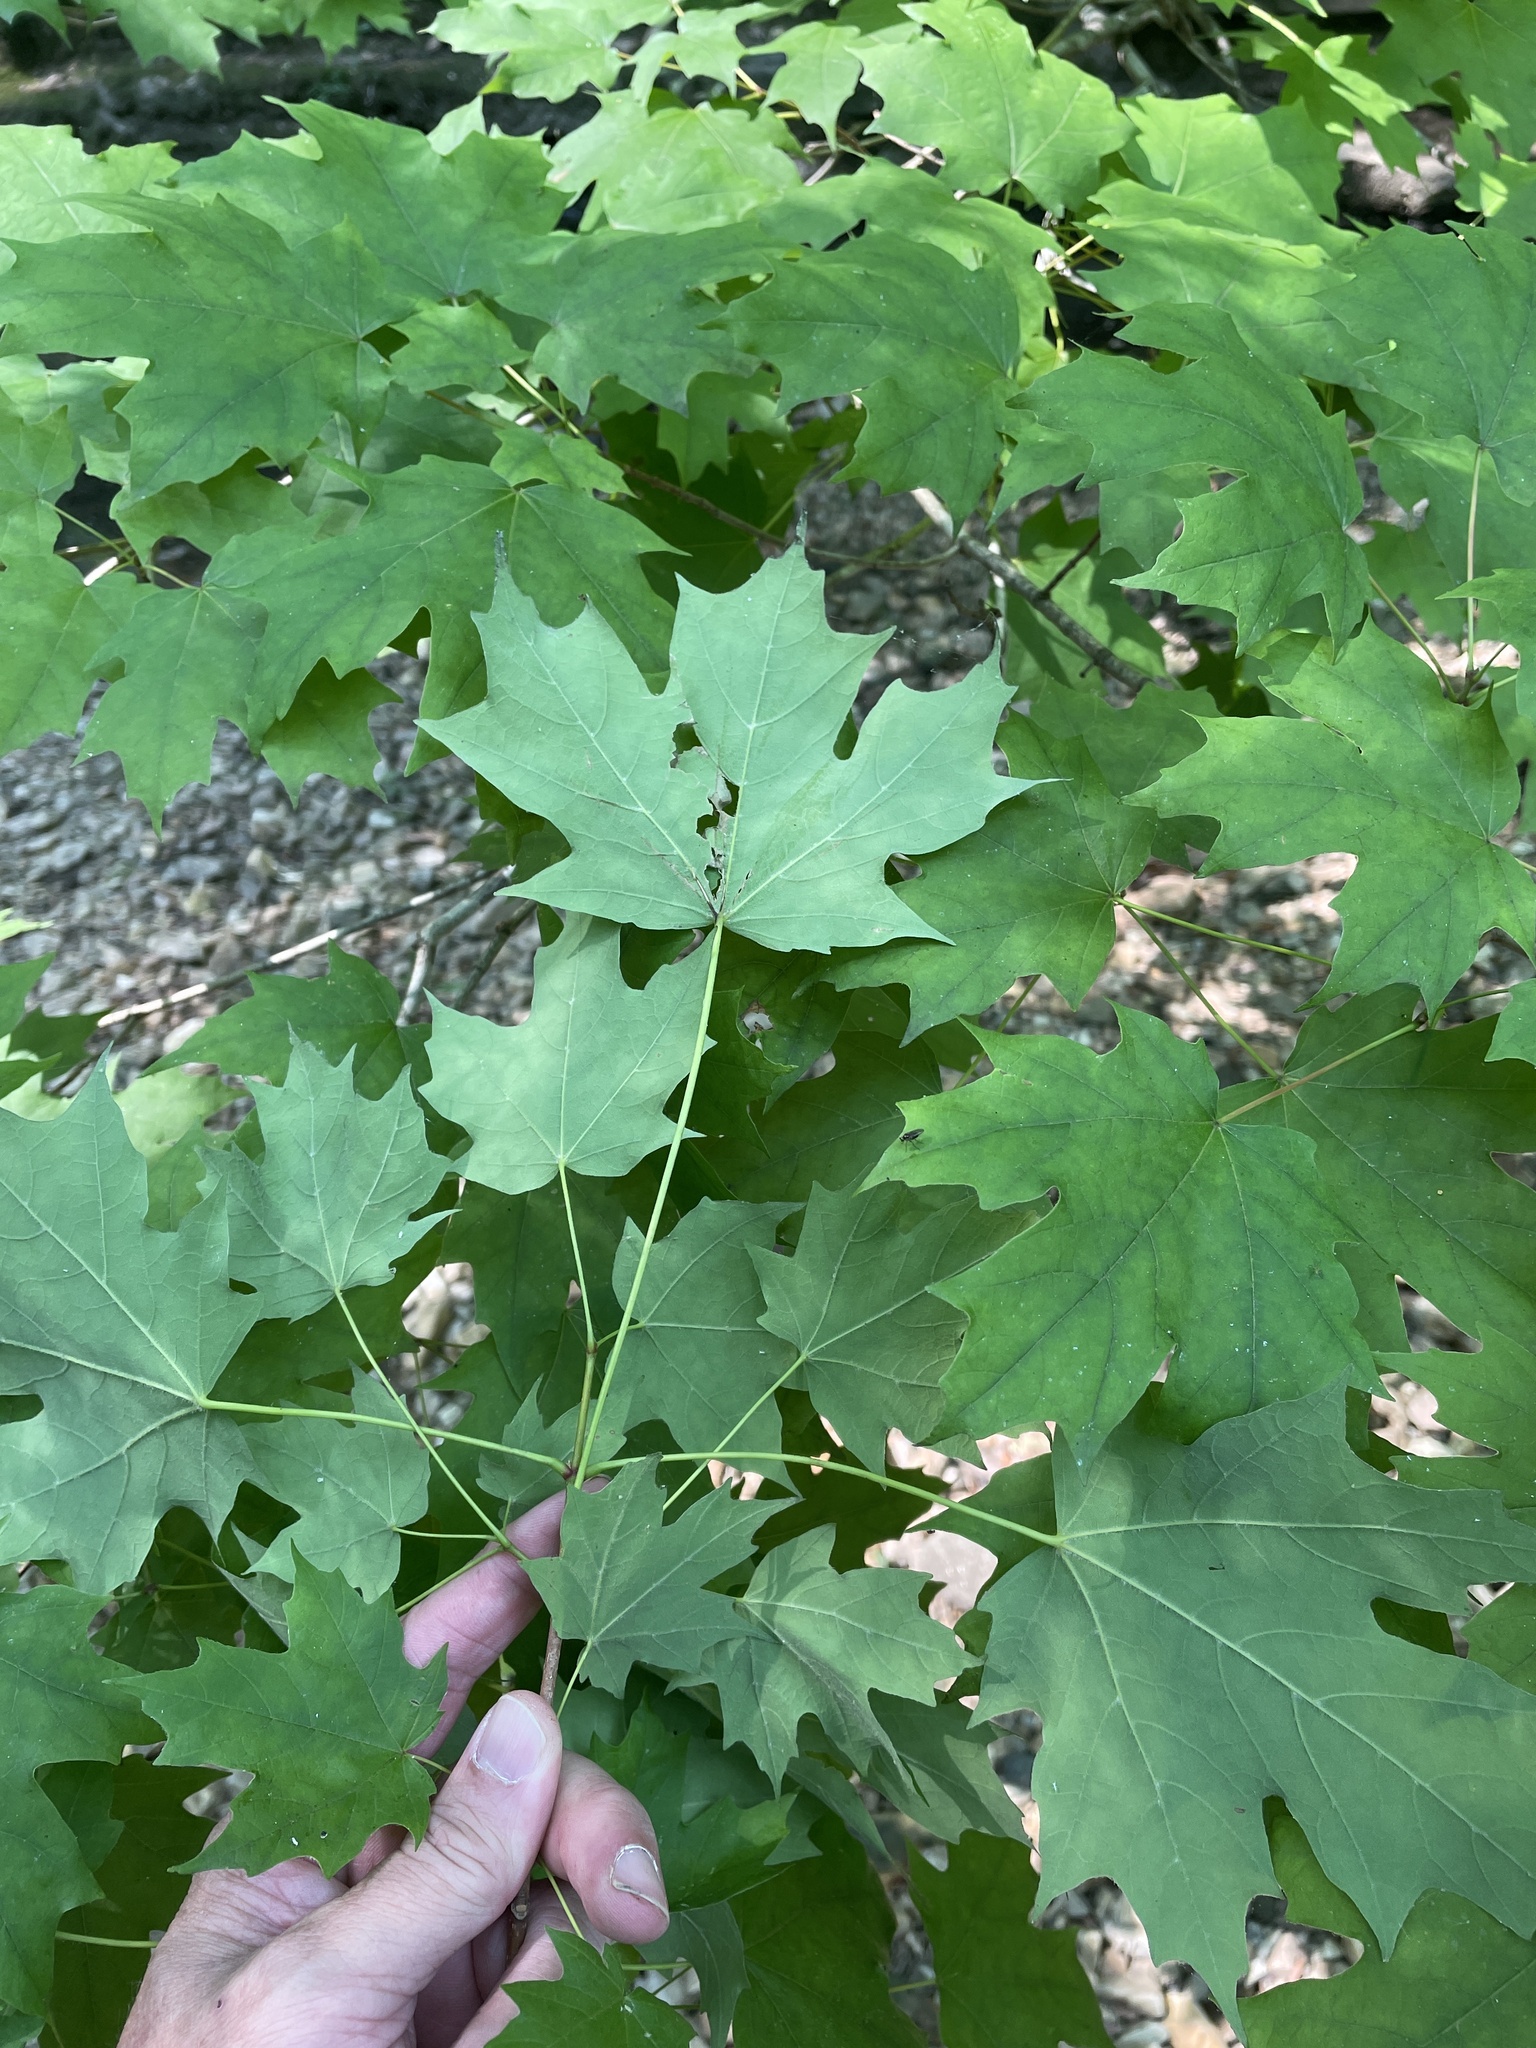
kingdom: Plantae
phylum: Tracheophyta
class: Magnoliopsida
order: Sapindales
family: Sapindaceae
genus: Acer
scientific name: Acer saccharum
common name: Sugar maple
